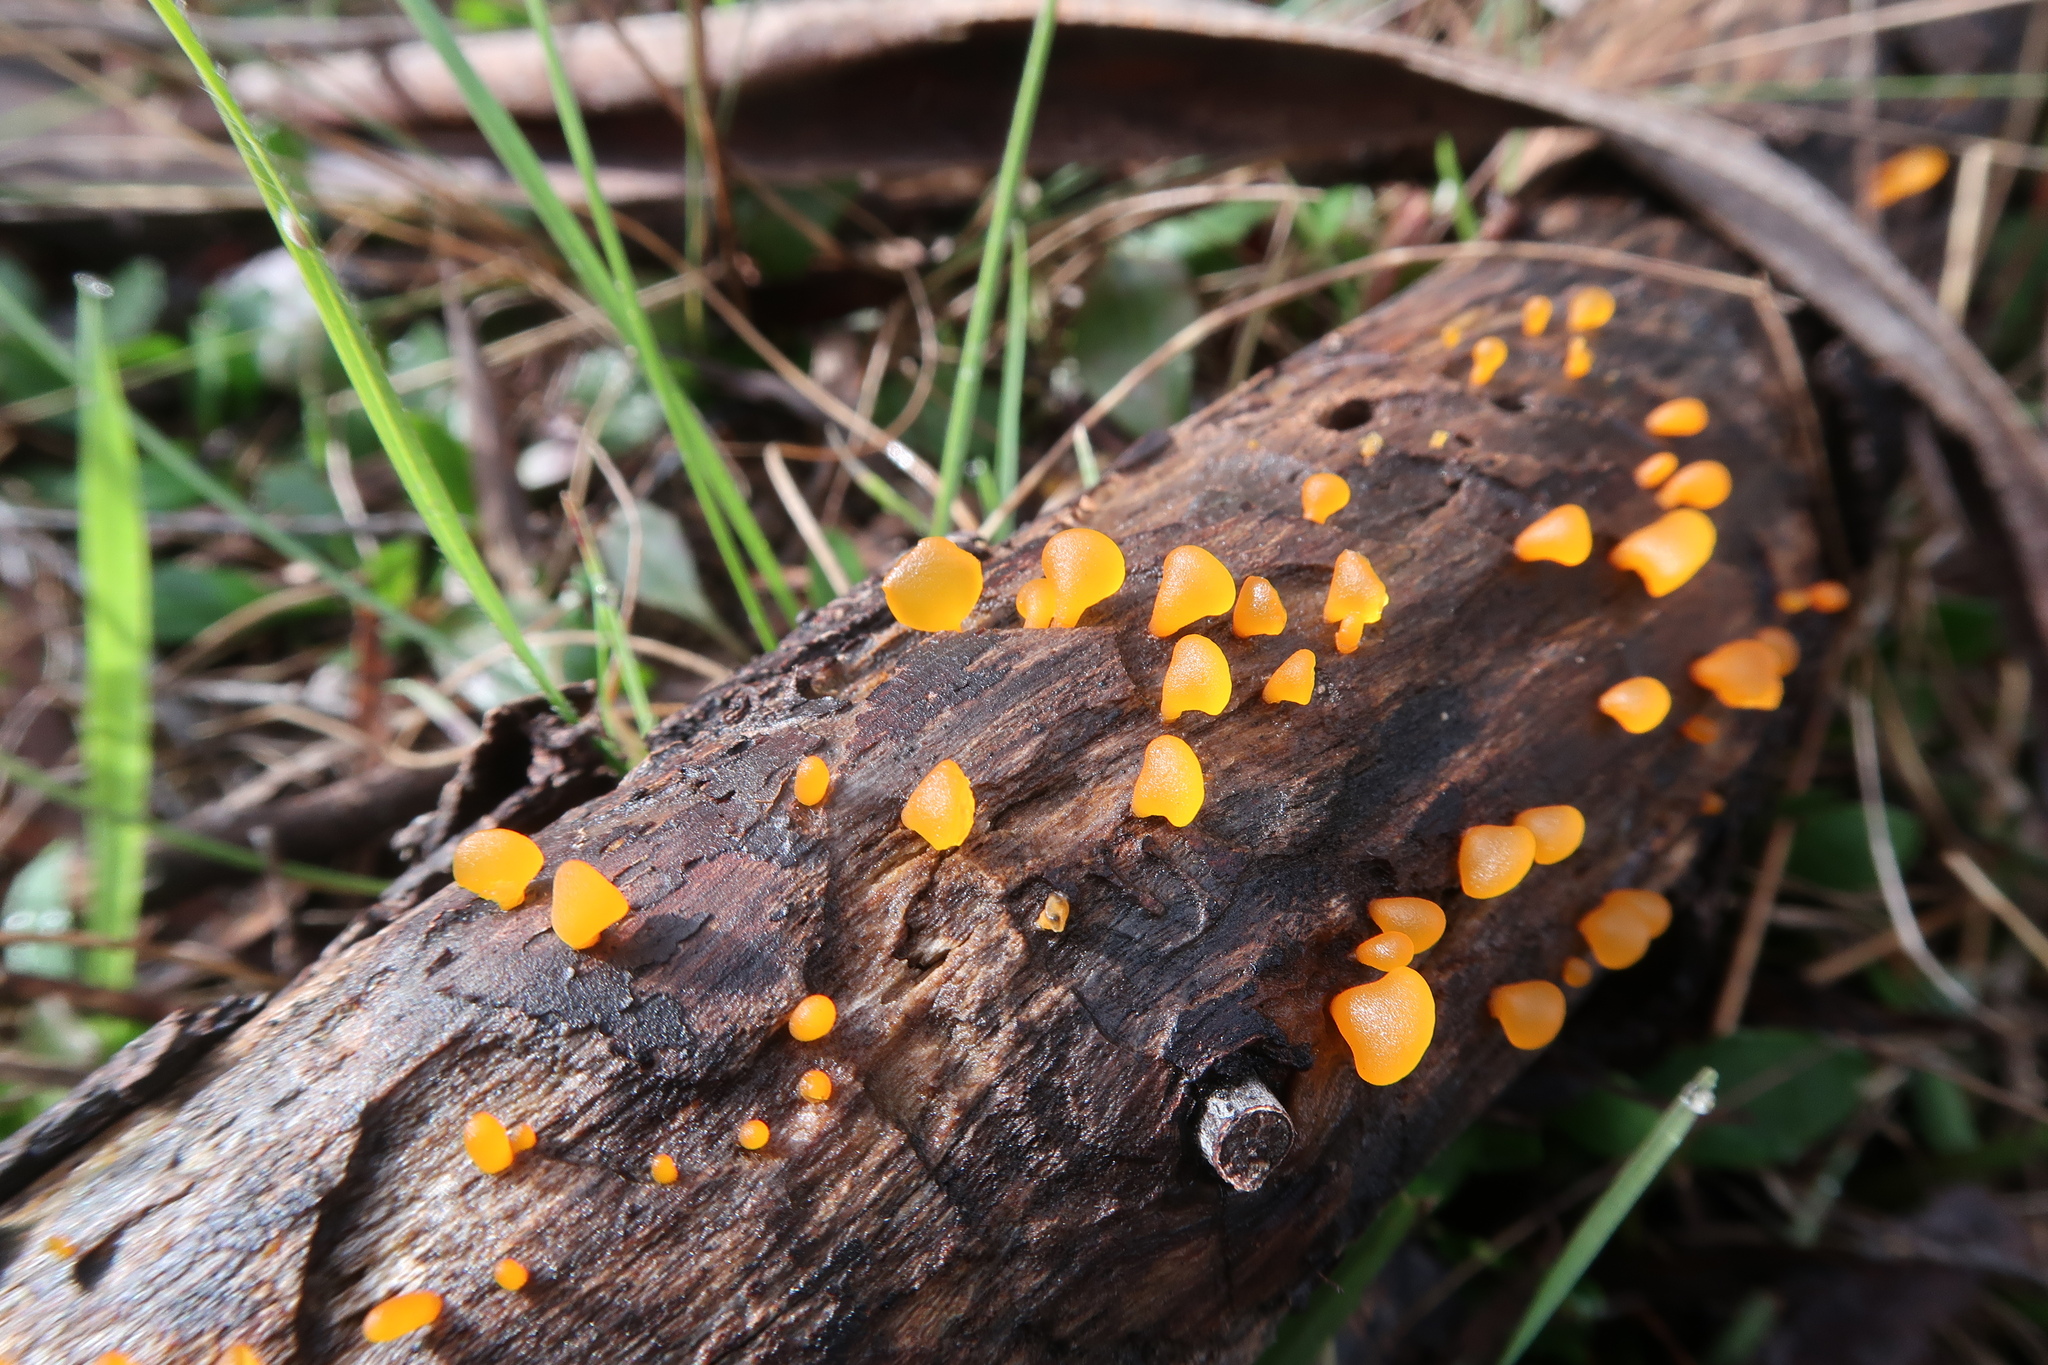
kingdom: Fungi
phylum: Basidiomycota
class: Dacrymycetes
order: Dacrymycetales
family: Dacrymycetaceae
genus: Heterotextus
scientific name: Heterotextus peziziformis
